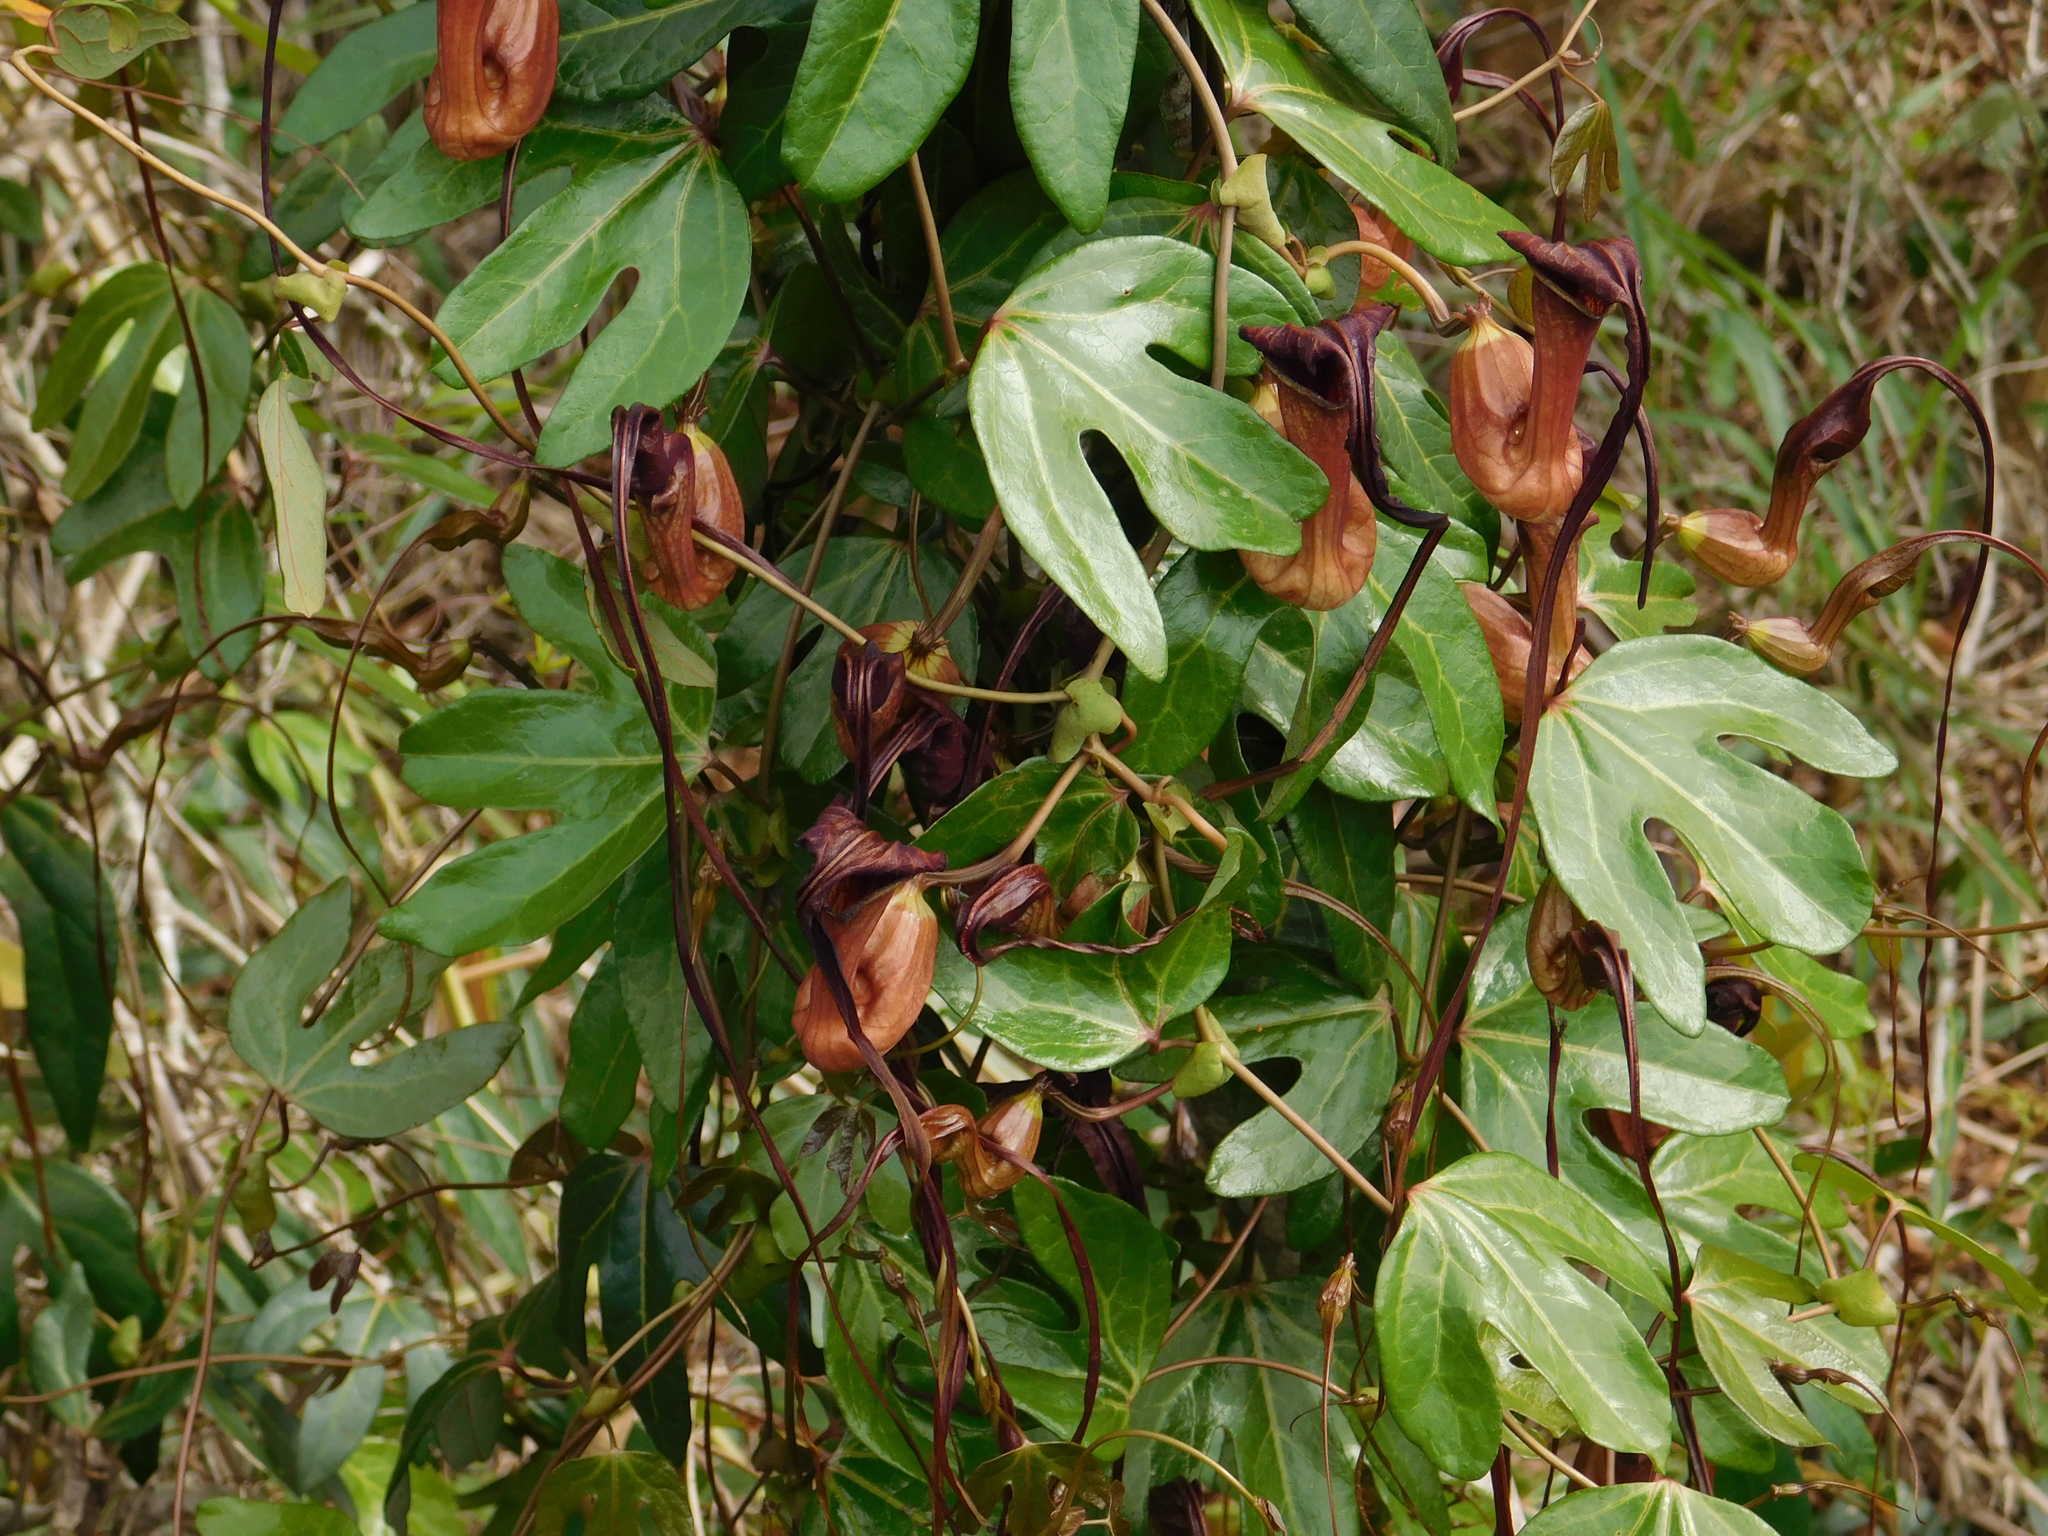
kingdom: Plantae
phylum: Tracheophyta
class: Magnoliopsida
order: Piperales
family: Aristolochiaceae
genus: Aristolochia
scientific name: Aristolochia macroura
